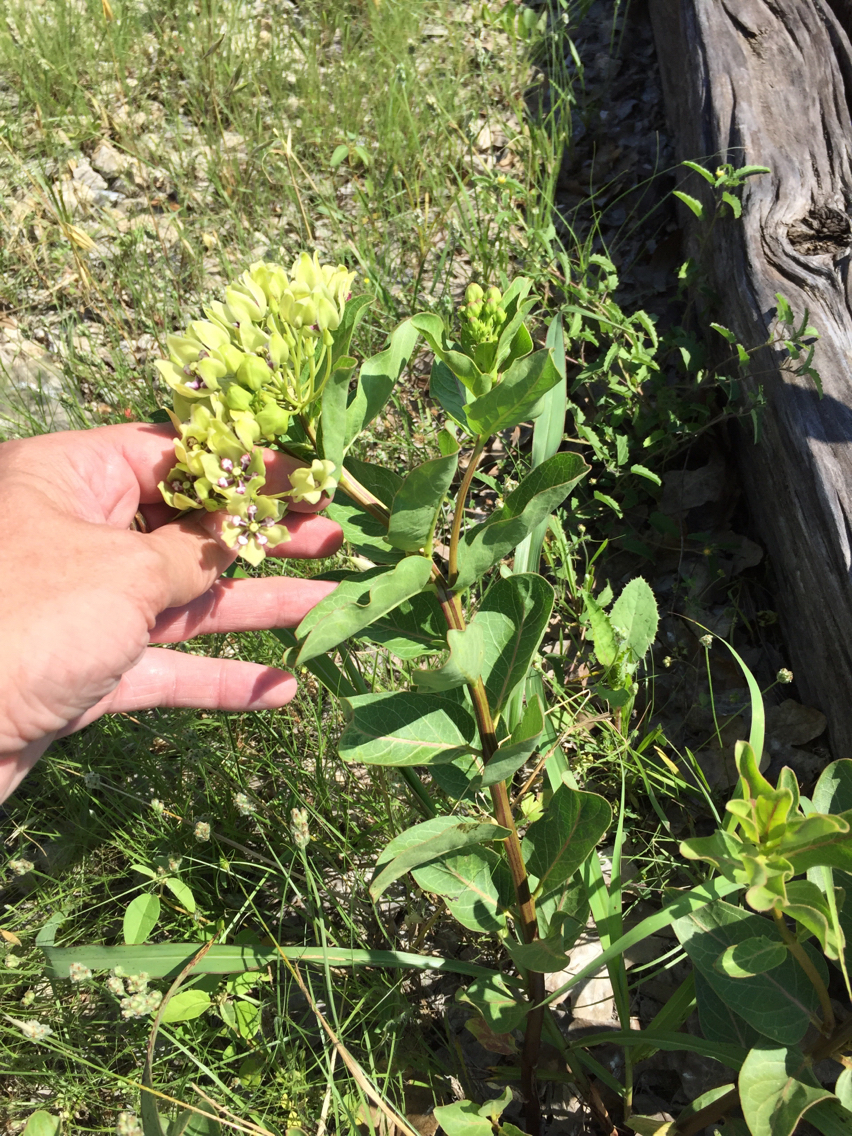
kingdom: Plantae
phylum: Tracheophyta
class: Magnoliopsida
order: Gentianales
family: Apocynaceae
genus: Asclepias
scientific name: Asclepias viridis
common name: Antelope-horns
